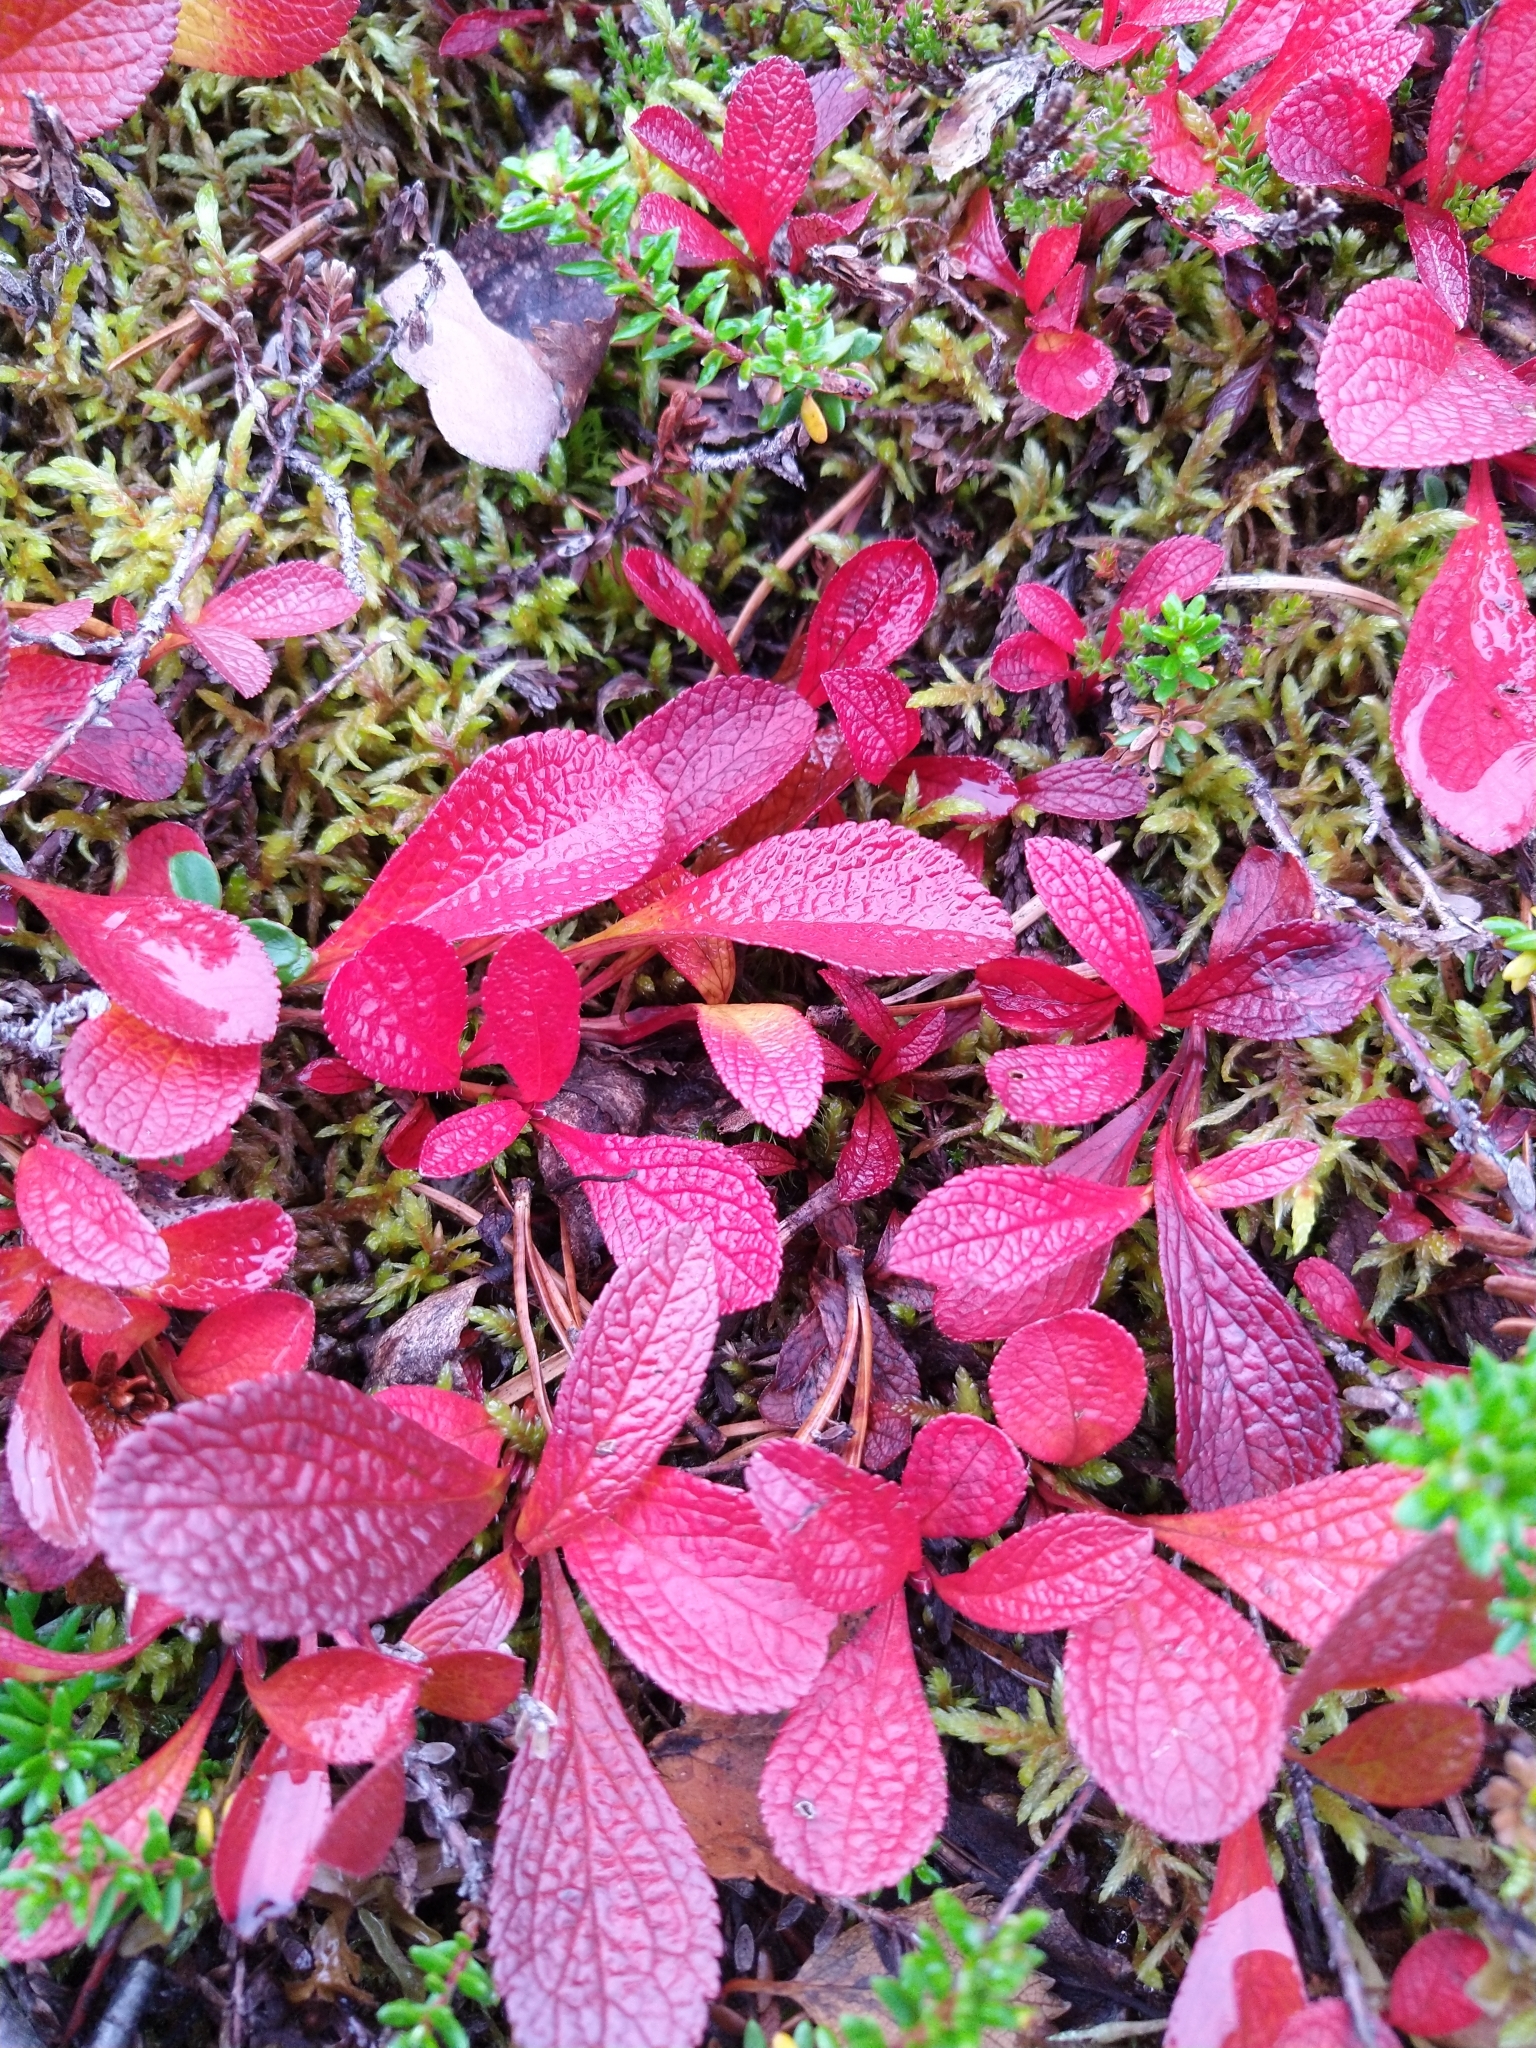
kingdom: Plantae
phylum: Tracheophyta
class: Magnoliopsida
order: Ericales
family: Ericaceae
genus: Arctostaphylos
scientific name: Arctostaphylos alpinus
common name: Alpine bearberry
